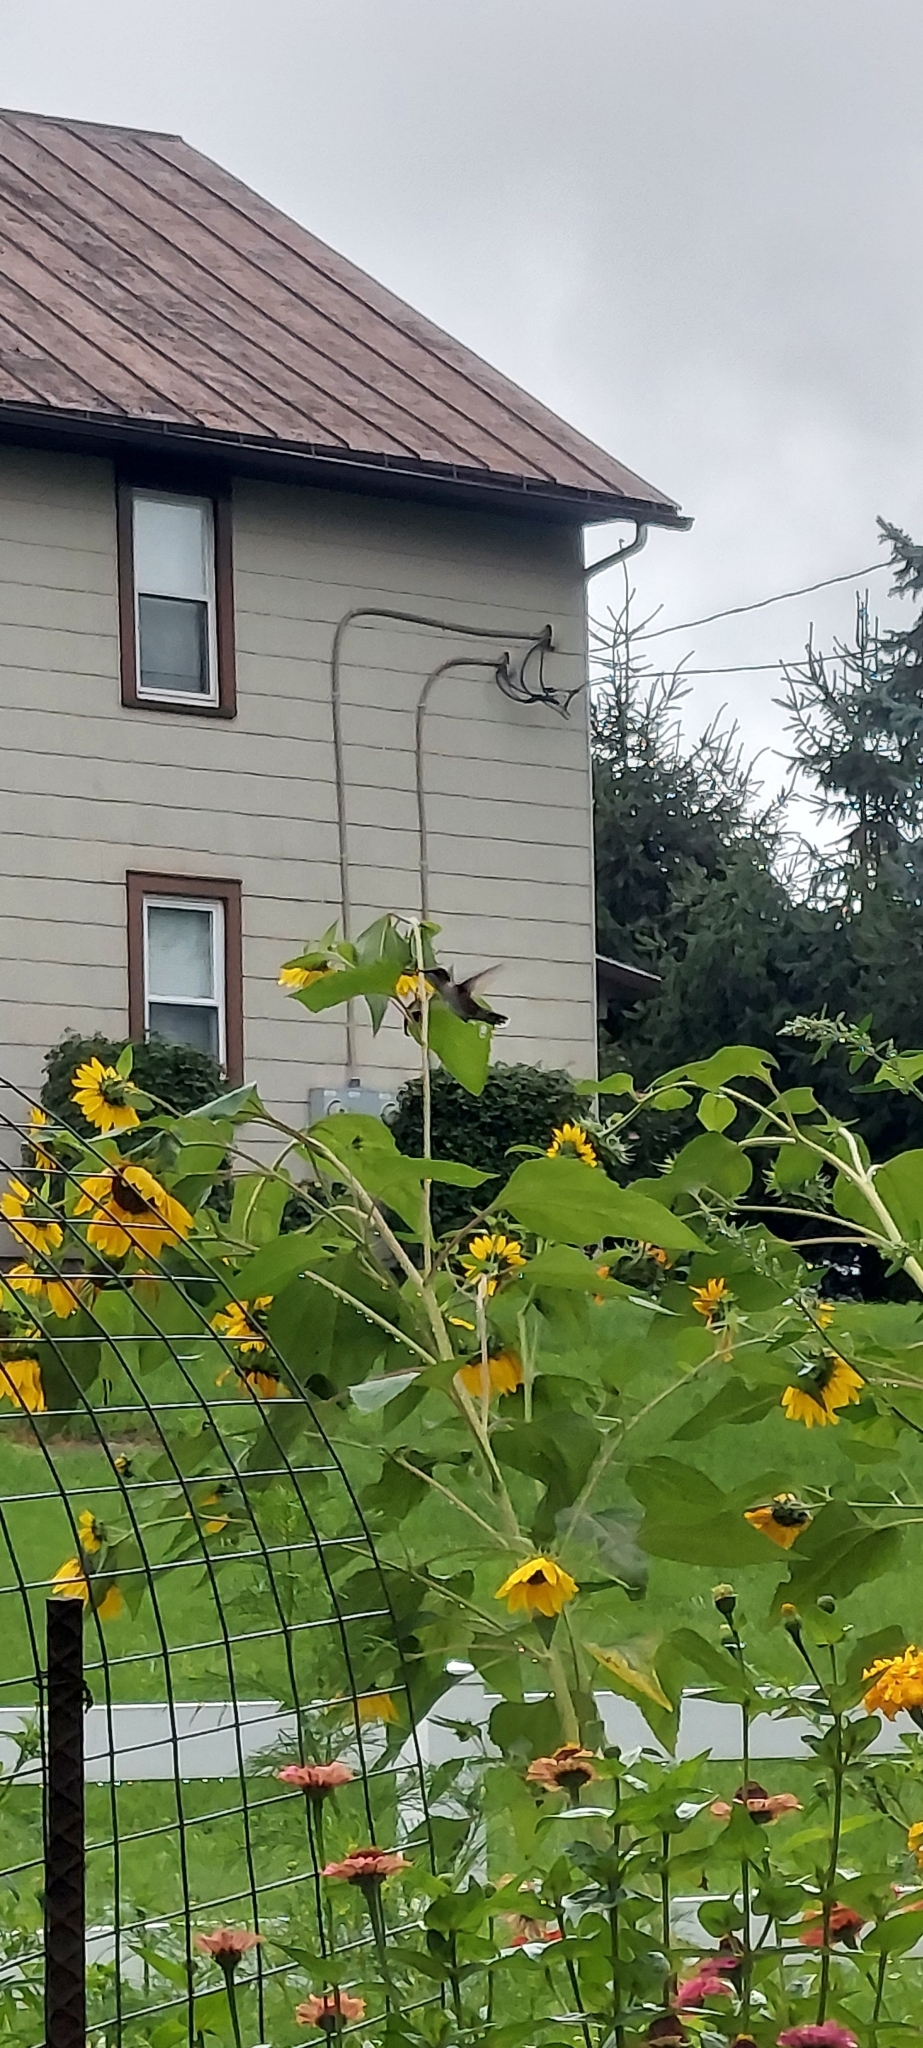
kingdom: Animalia
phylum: Chordata
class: Aves
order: Apodiformes
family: Trochilidae
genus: Archilochus
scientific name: Archilochus colubris
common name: Ruby-throated hummingbird
